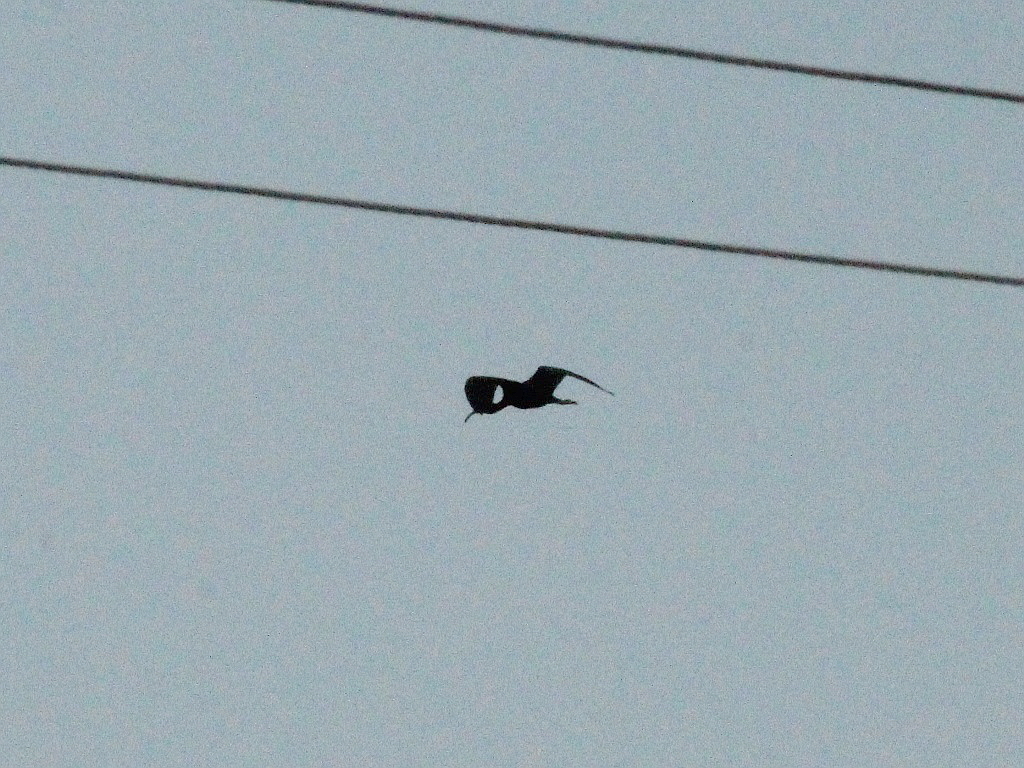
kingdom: Animalia
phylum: Chordata
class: Aves
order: Pelecaniformes
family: Threskiornithidae
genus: Plegadis
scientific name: Plegadis falcinellus
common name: Glossy ibis
